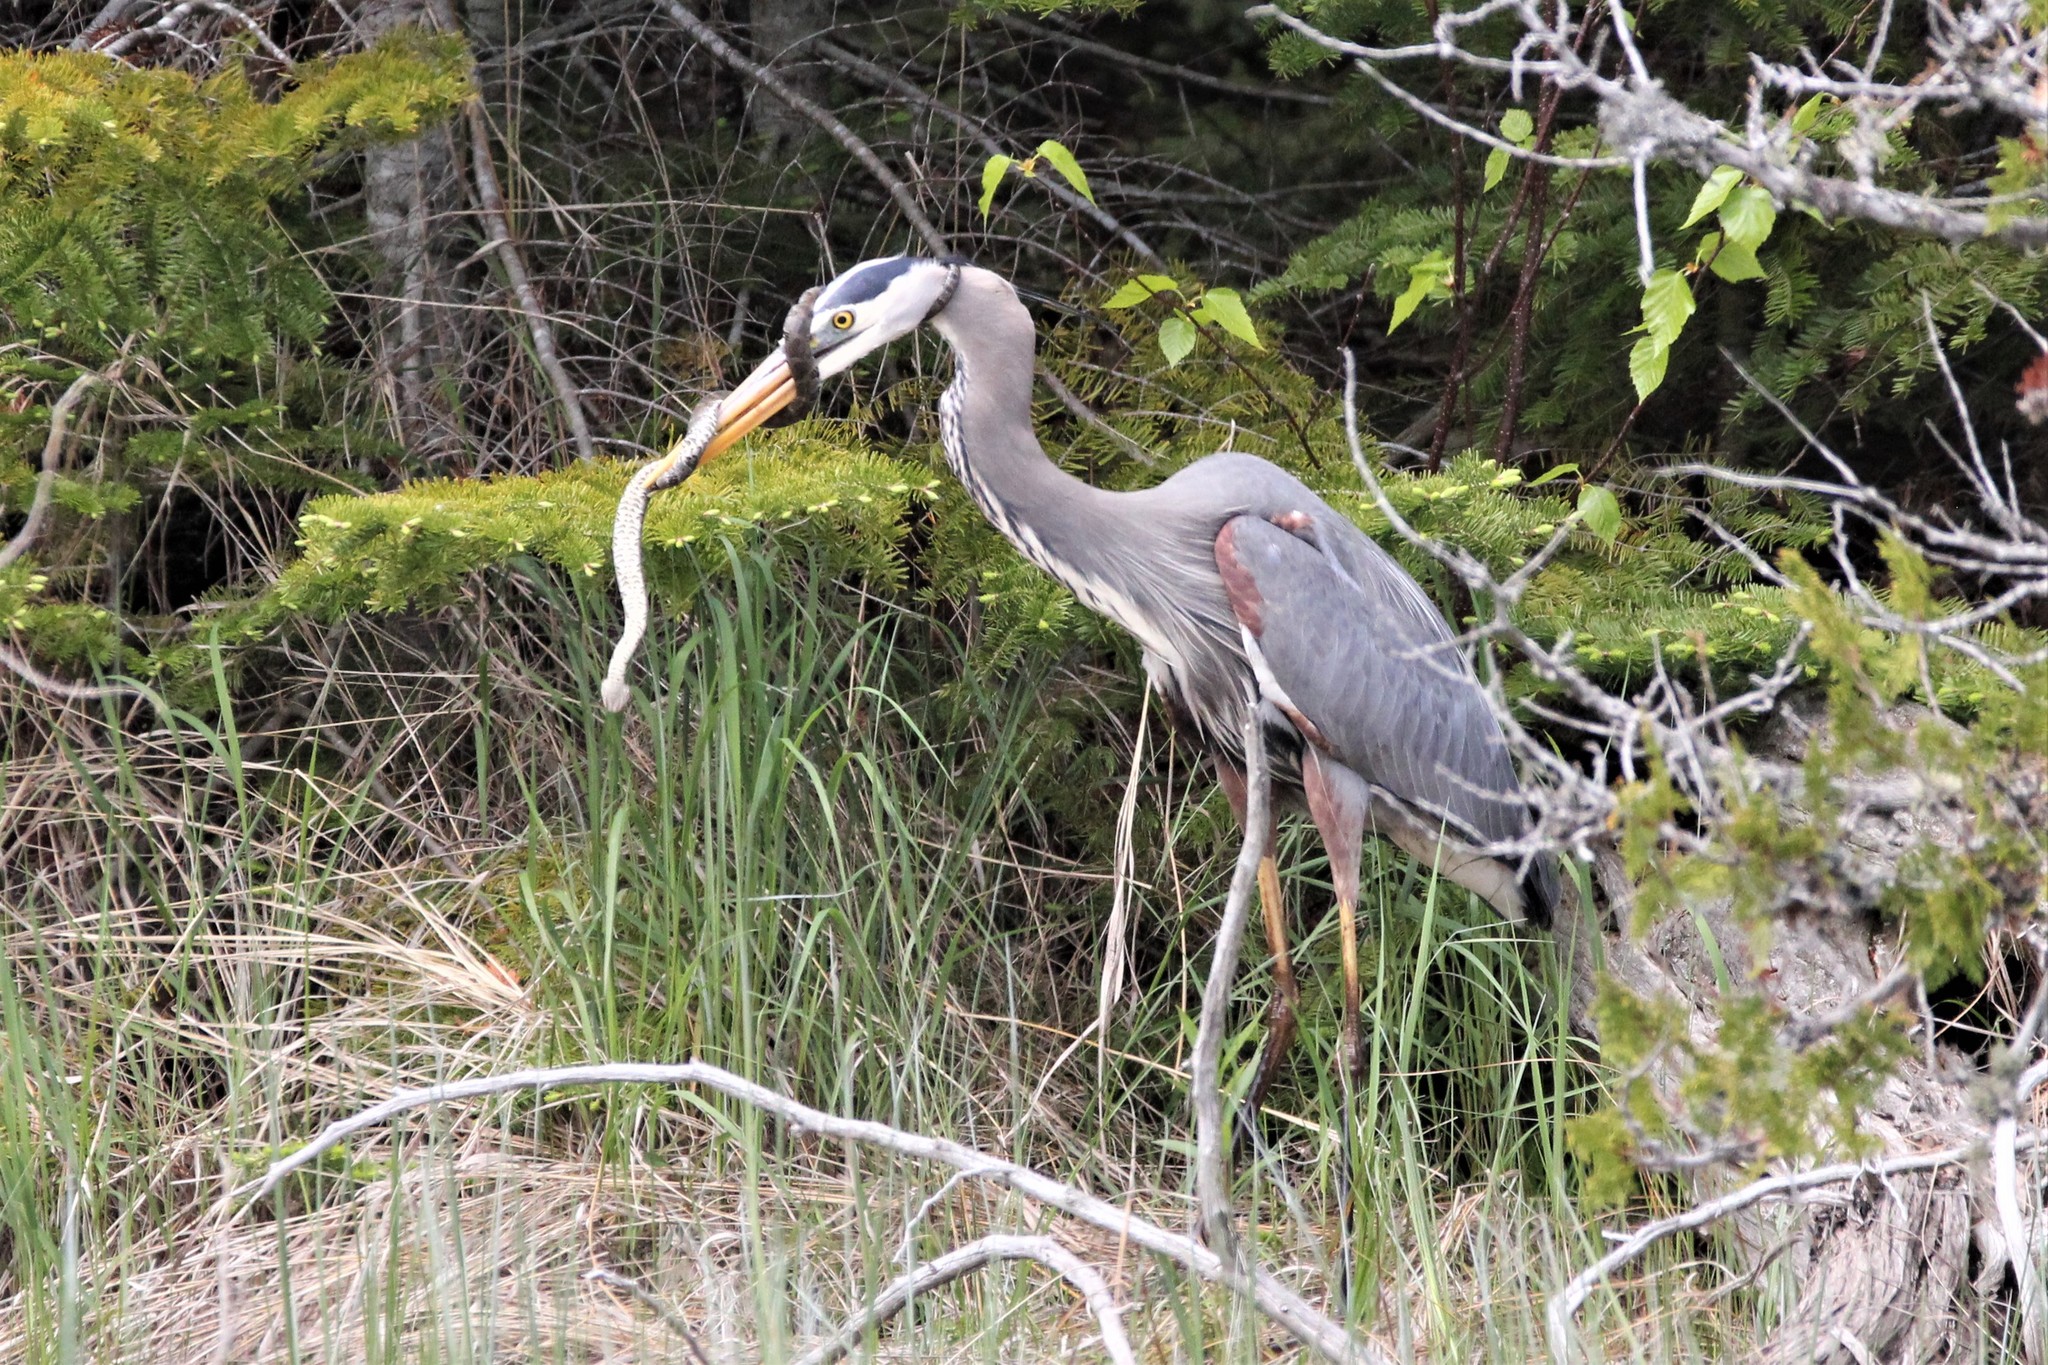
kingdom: Animalia
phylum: Chordata
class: Aves
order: Pelecaniformes
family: Ardeidae
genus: Ardea
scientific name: Ardea herodias
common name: Great blue heron
